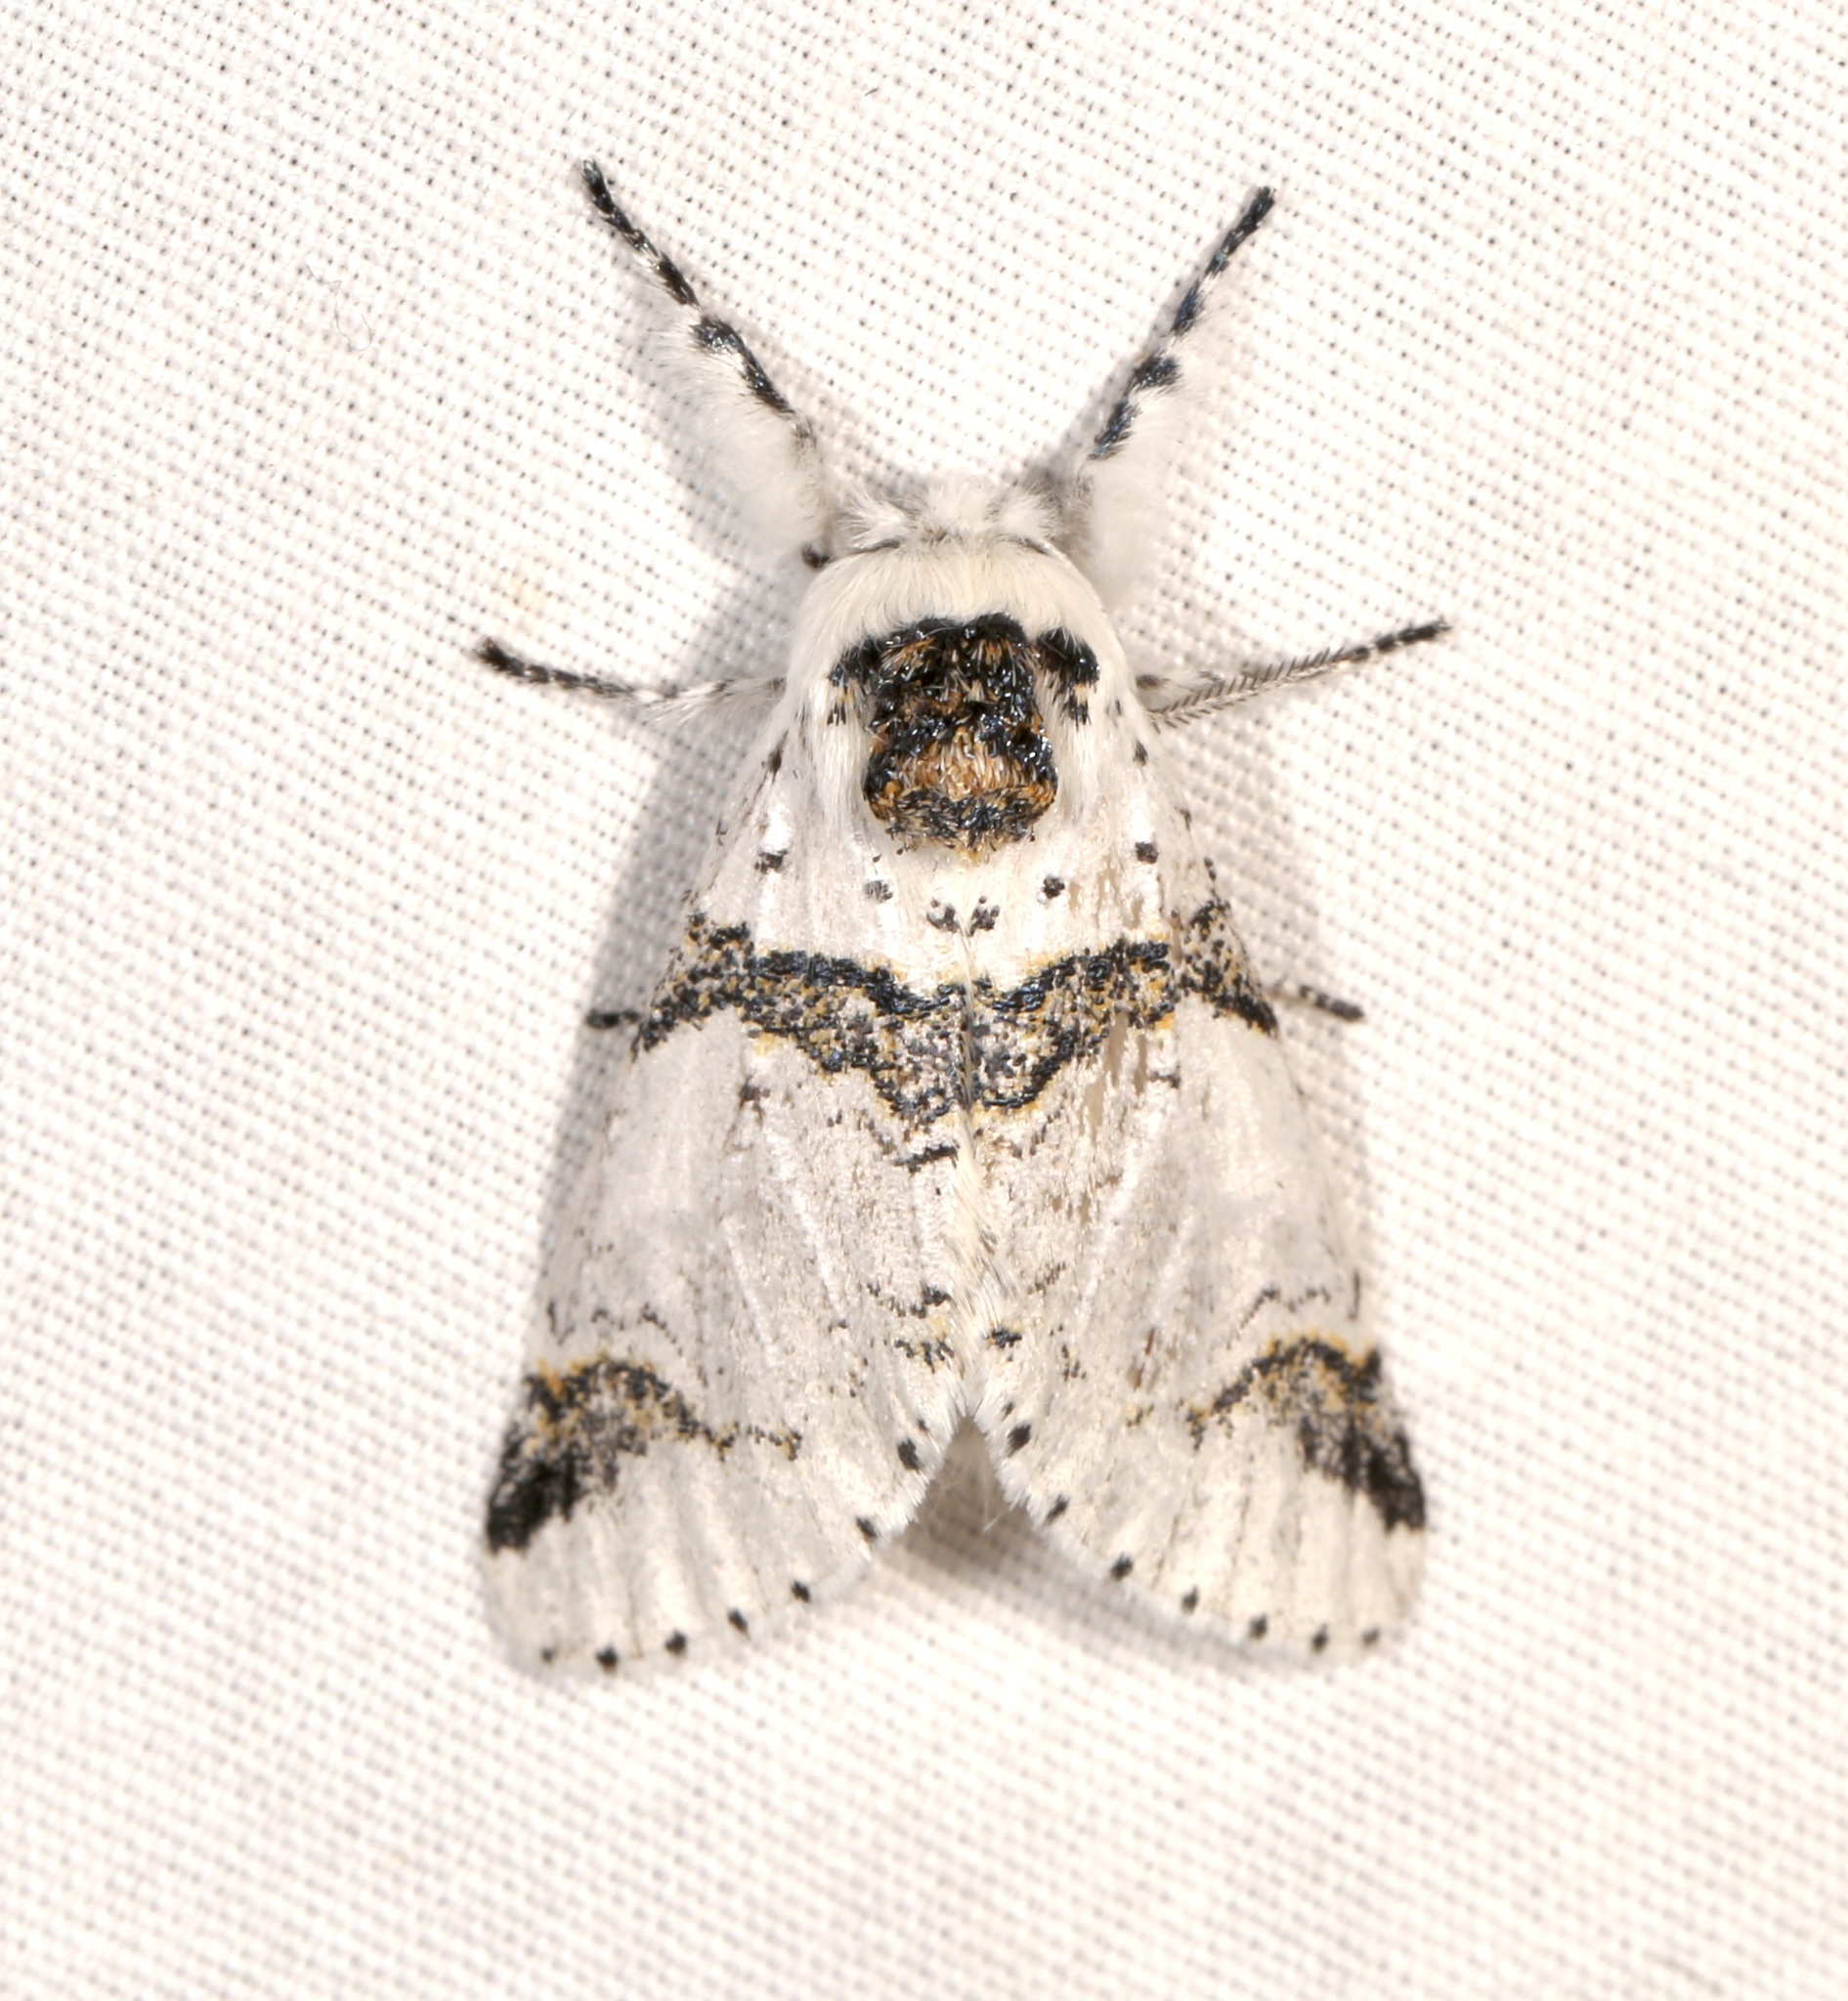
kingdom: Animalia
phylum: Arthropoda
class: Insecta
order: Lepidoptera
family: Notodontidae
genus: Furcula
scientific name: Furcula scolopendrina
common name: Zigzag furcula moth
